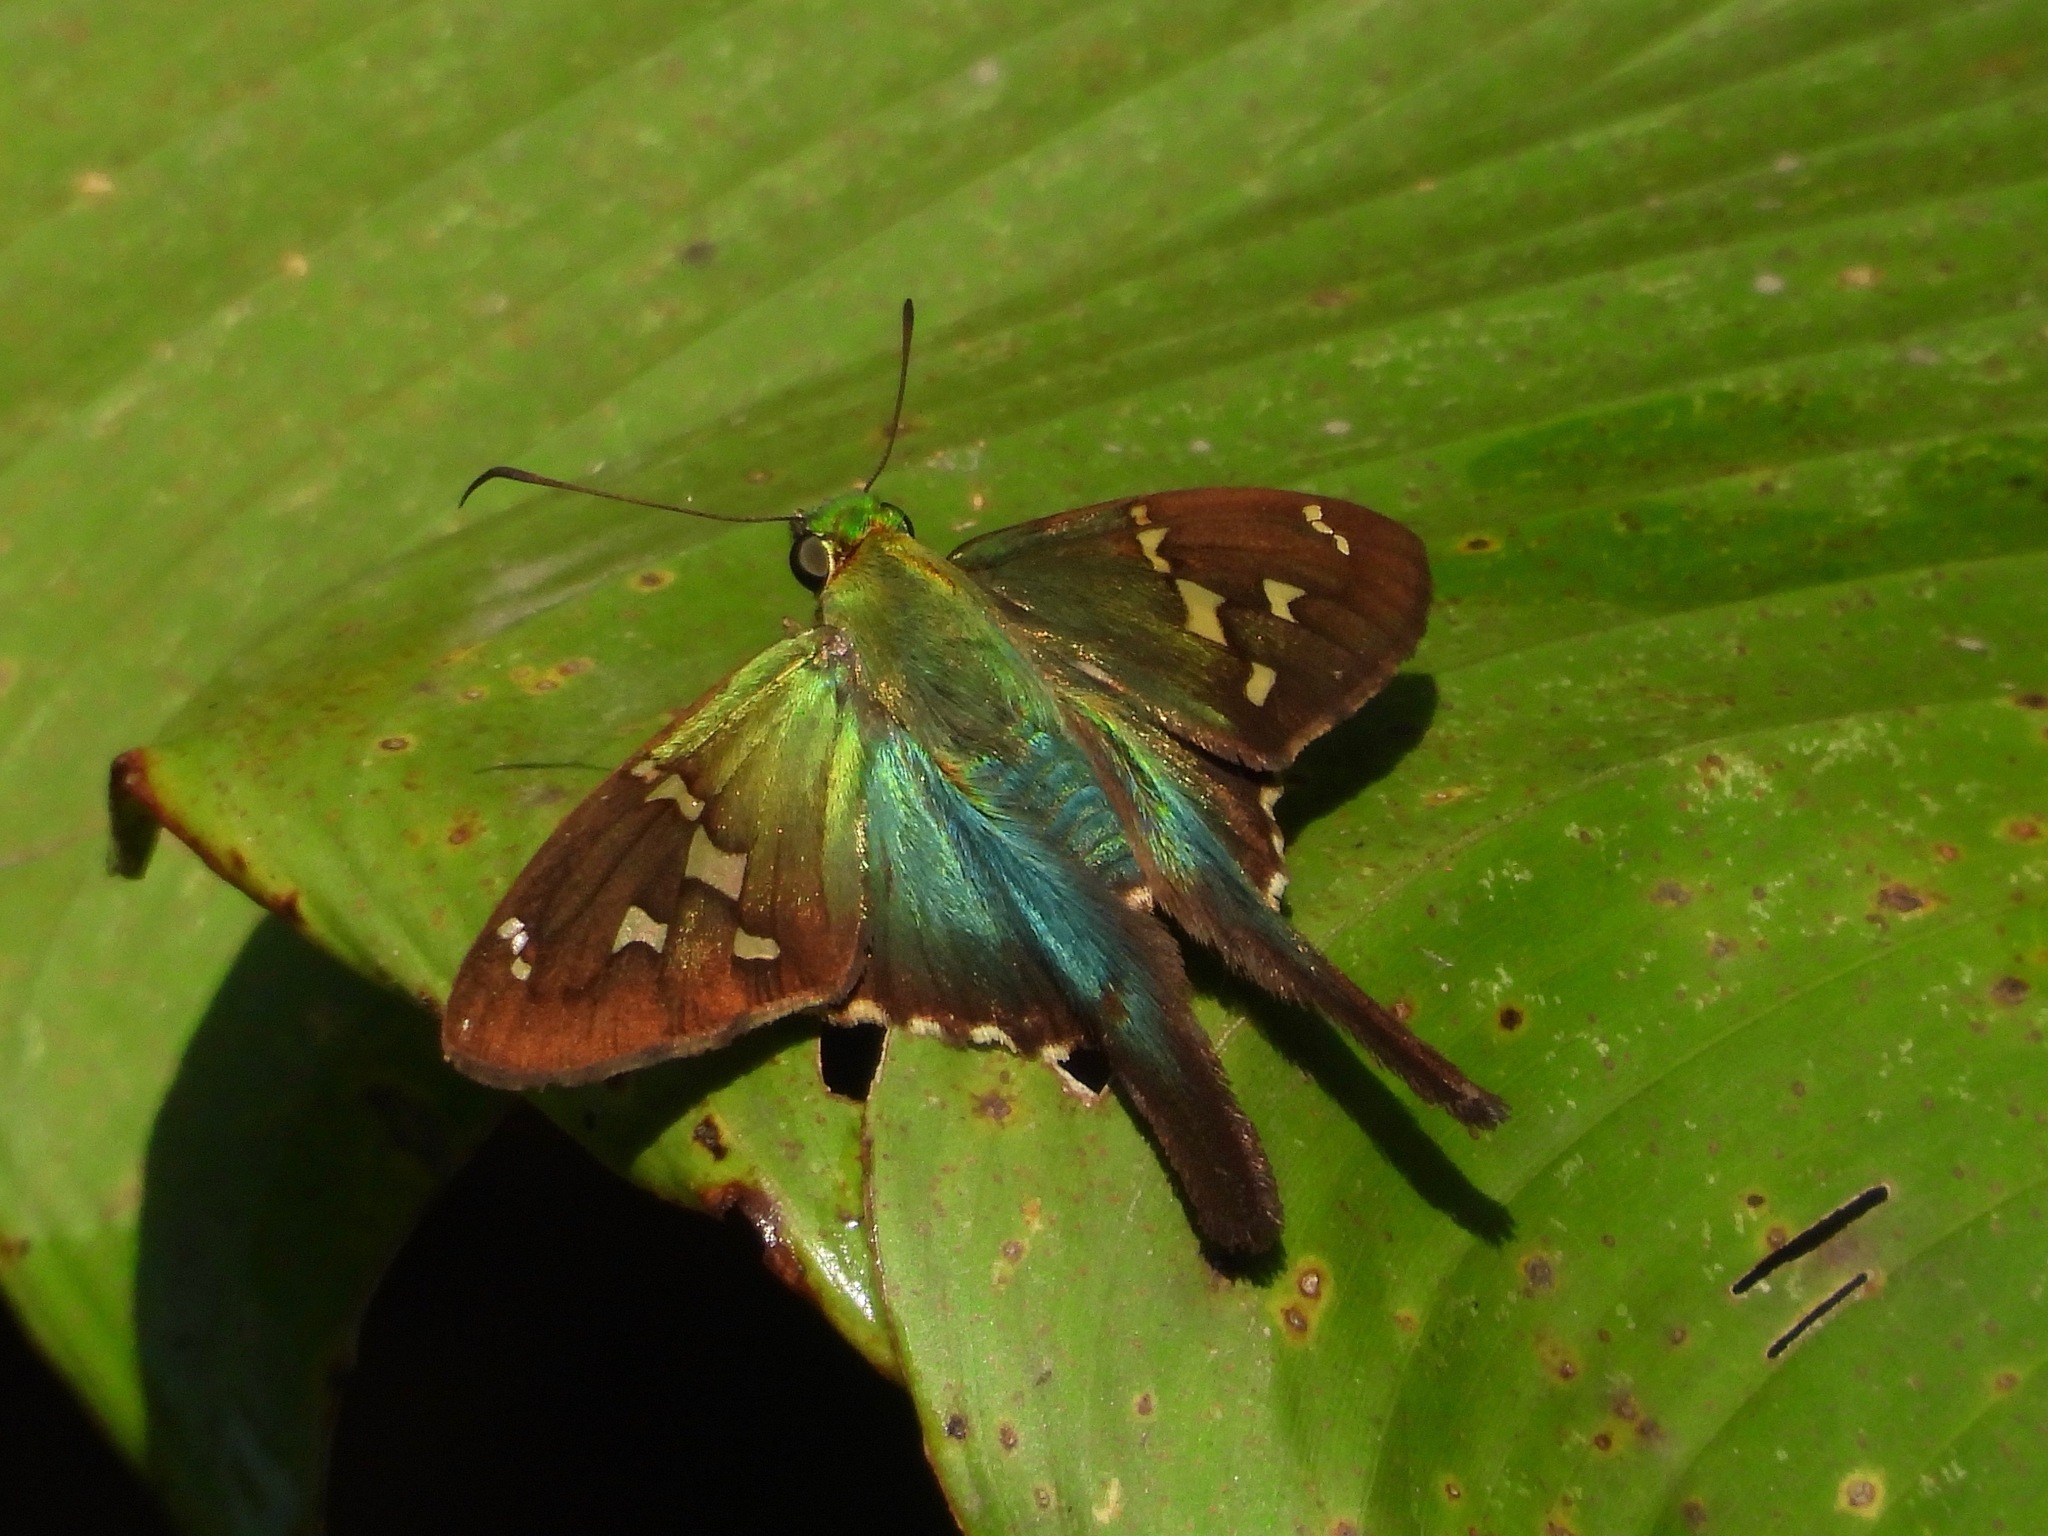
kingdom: Animalia
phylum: Arthropoda
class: Insecta
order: Lepidoptera
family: Hesperiidae
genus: Urbanus
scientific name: Urbanus esmeraldus
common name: Esmeralda longtail
